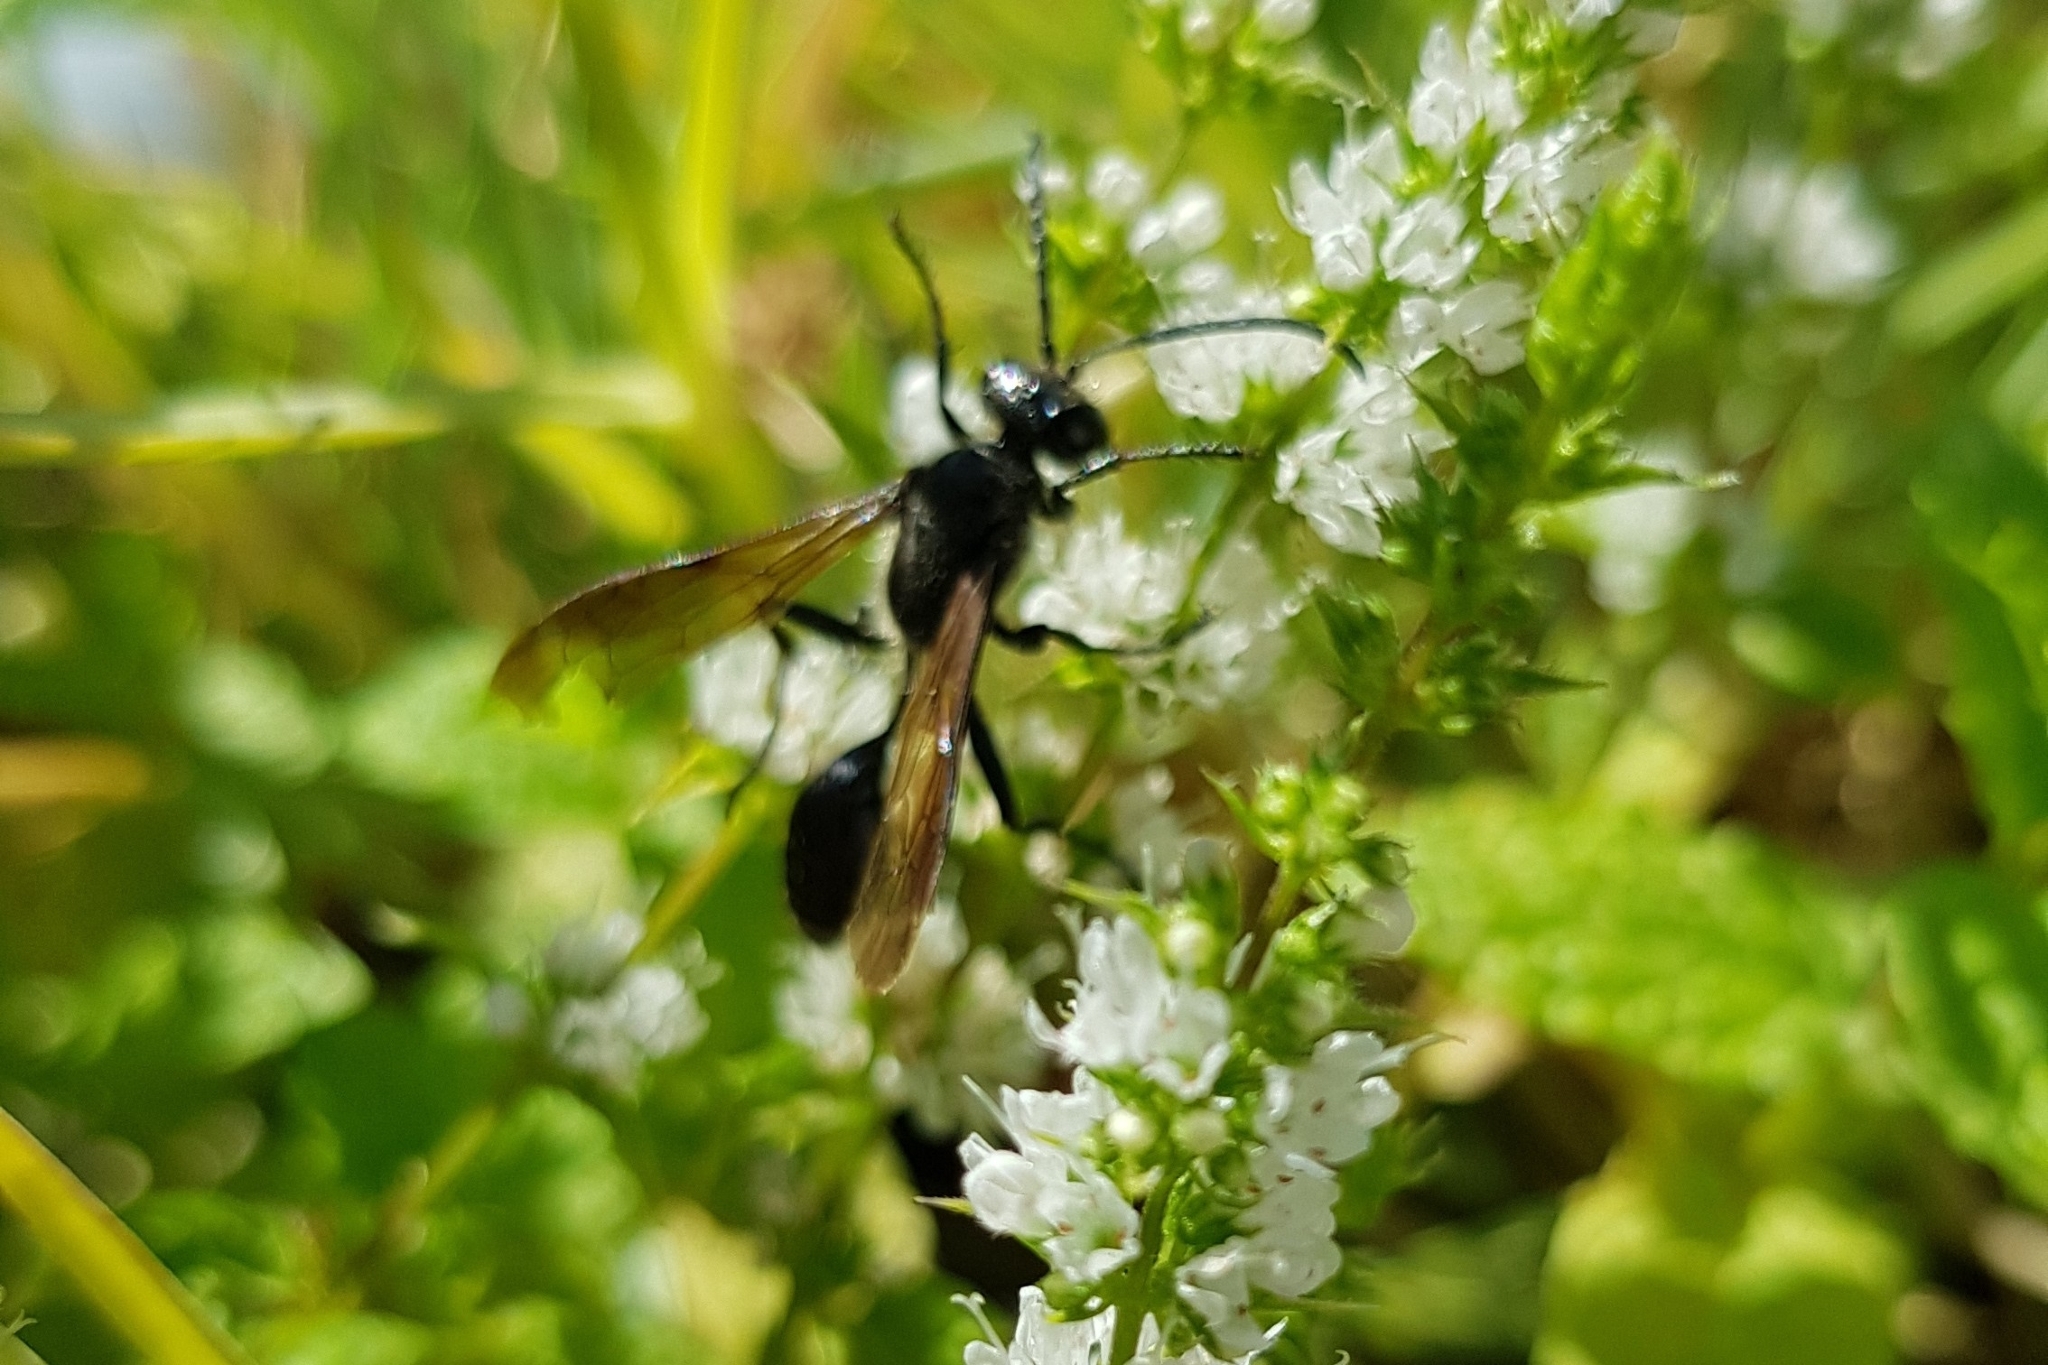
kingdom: Animalia
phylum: Arthropoda
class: Insecta
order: Hymenoptera
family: Sphecidae
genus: Isodontia
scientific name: Isodontia mexicana
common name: Mud dauber
